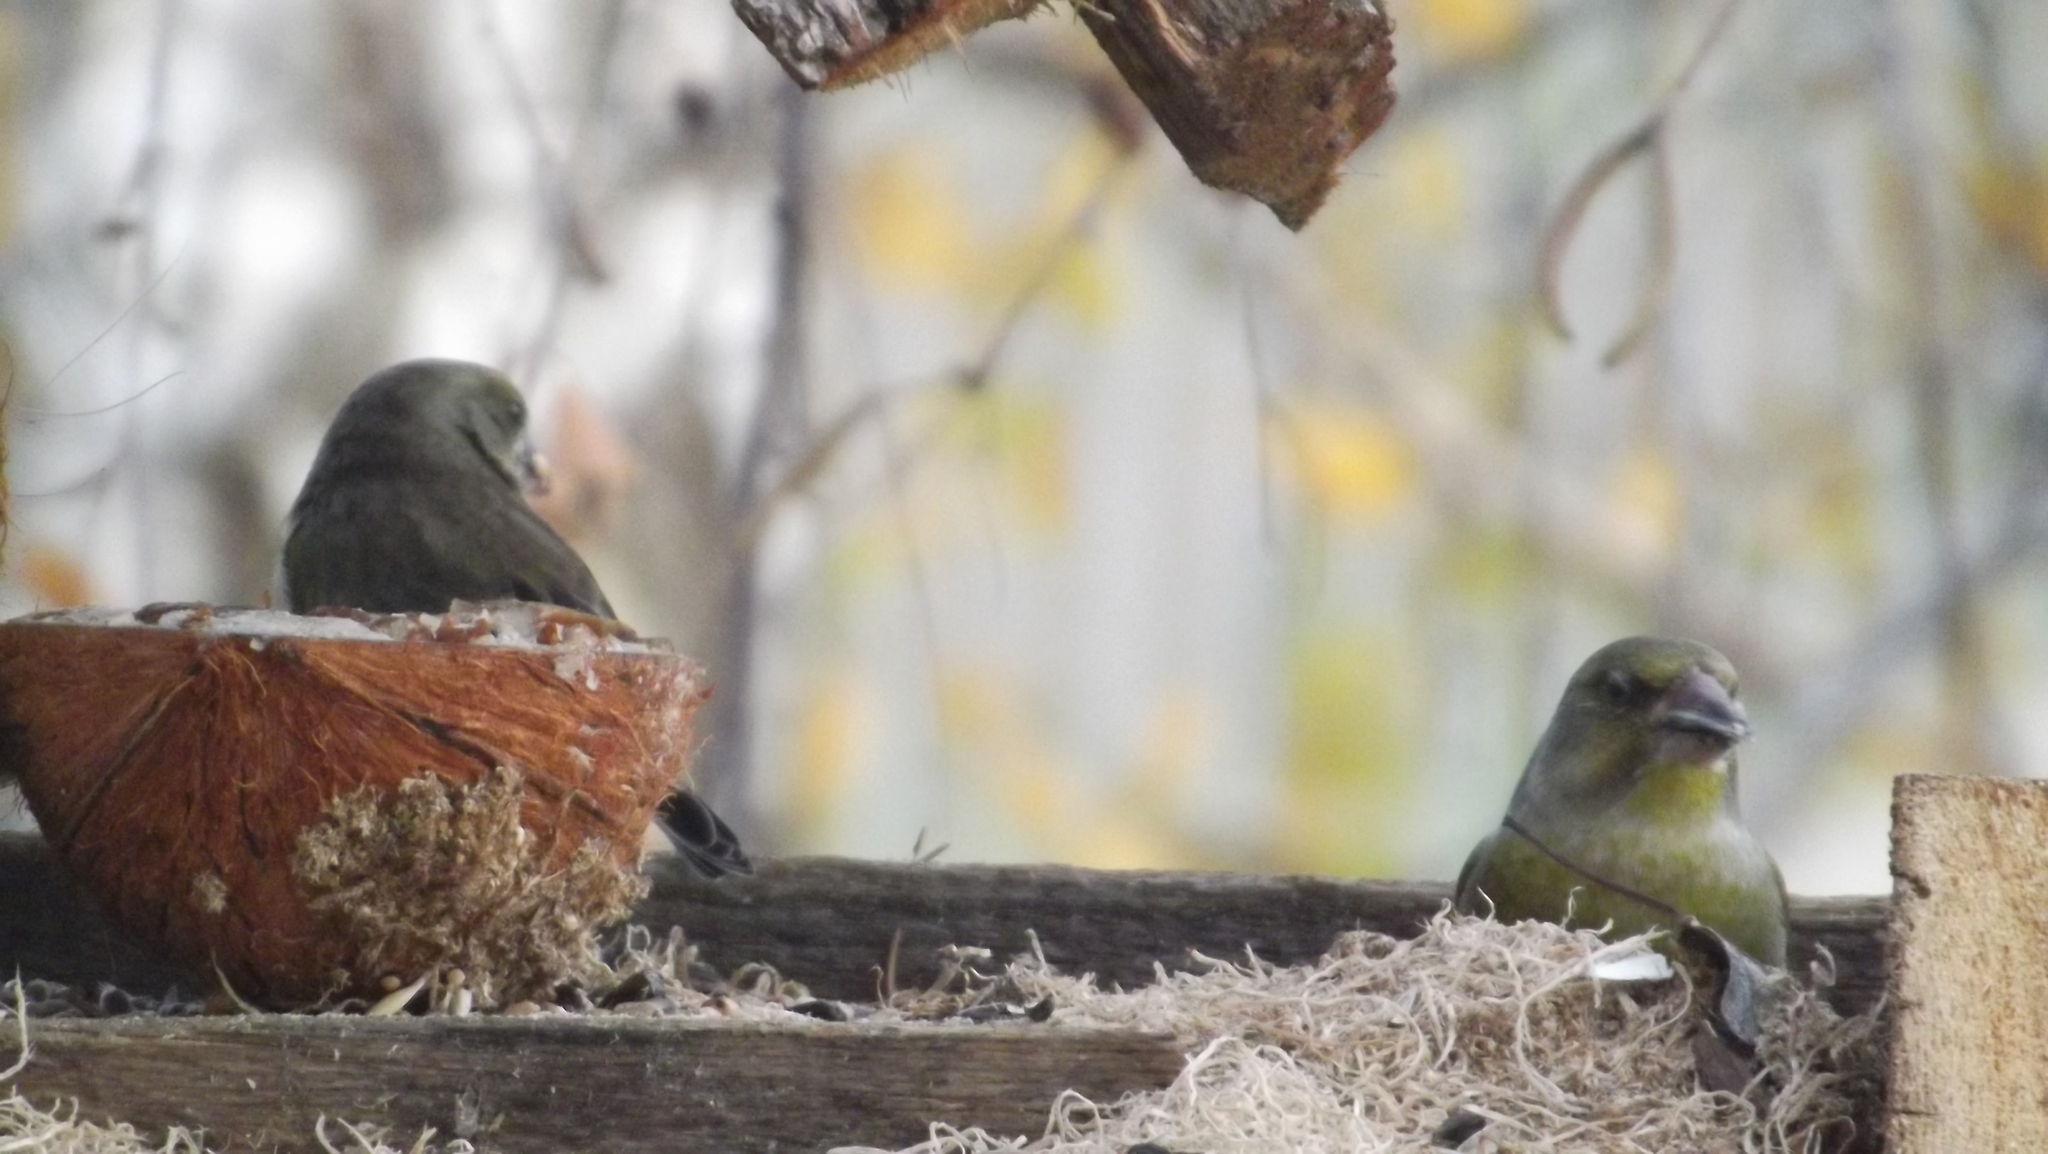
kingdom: Plantae
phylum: Tracheophyta
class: Liliopsida
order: Poales
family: Poaceae
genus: Chloris
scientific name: Chloris chloris
